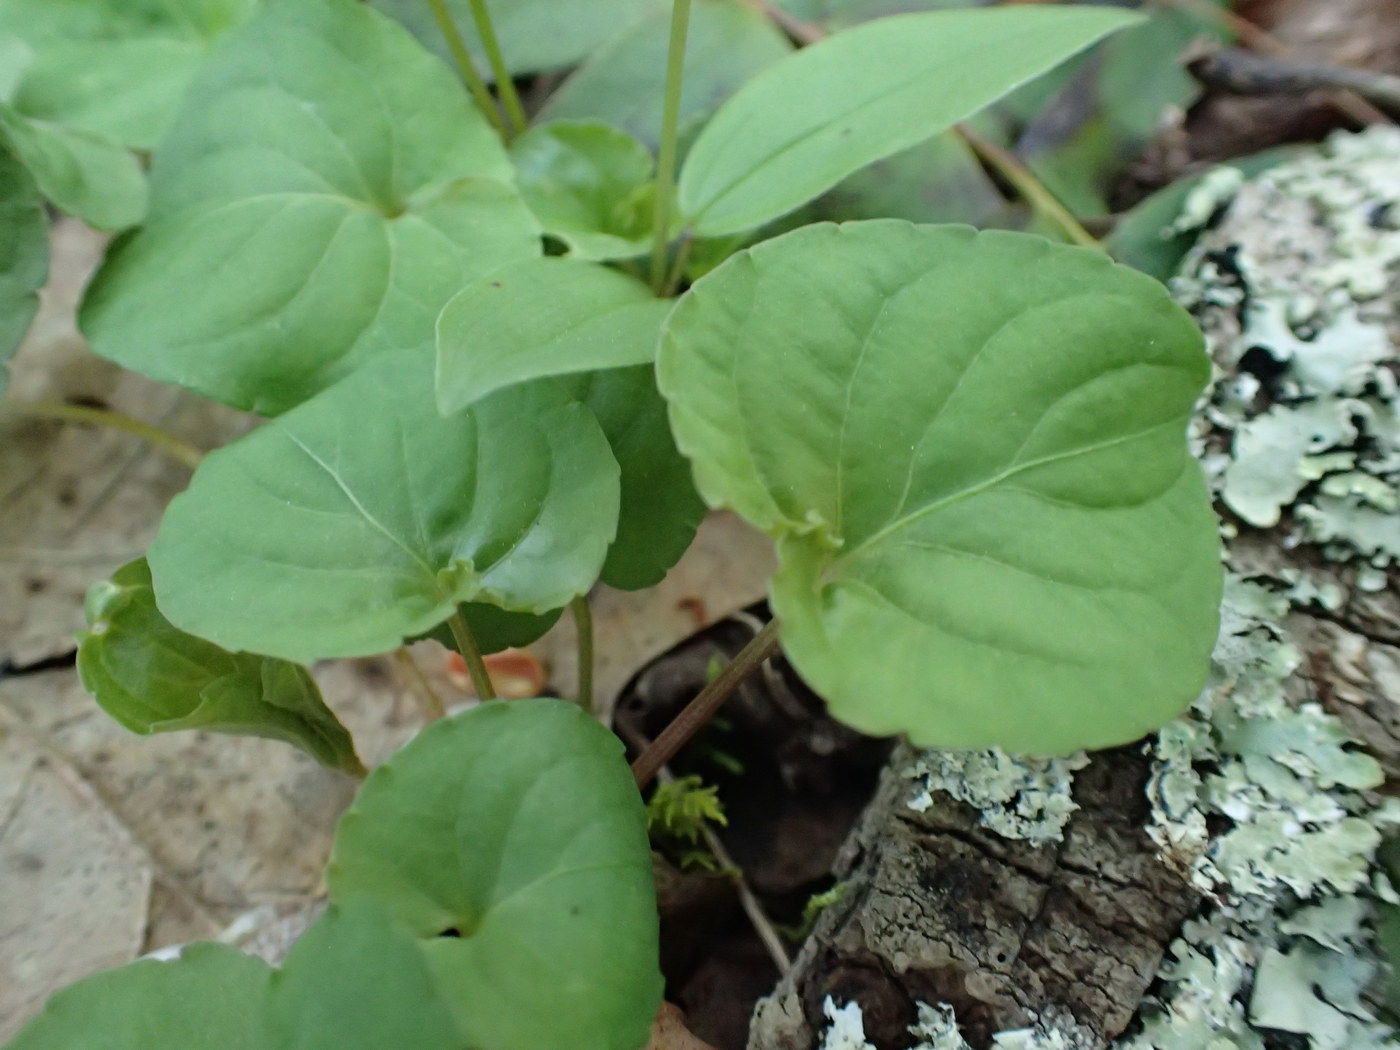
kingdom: Plantae
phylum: Tracheophyta
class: Magnoliopsida
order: Malpighiales
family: Violaceae
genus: Viola
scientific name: Viola blanda
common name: Sweet white violet
